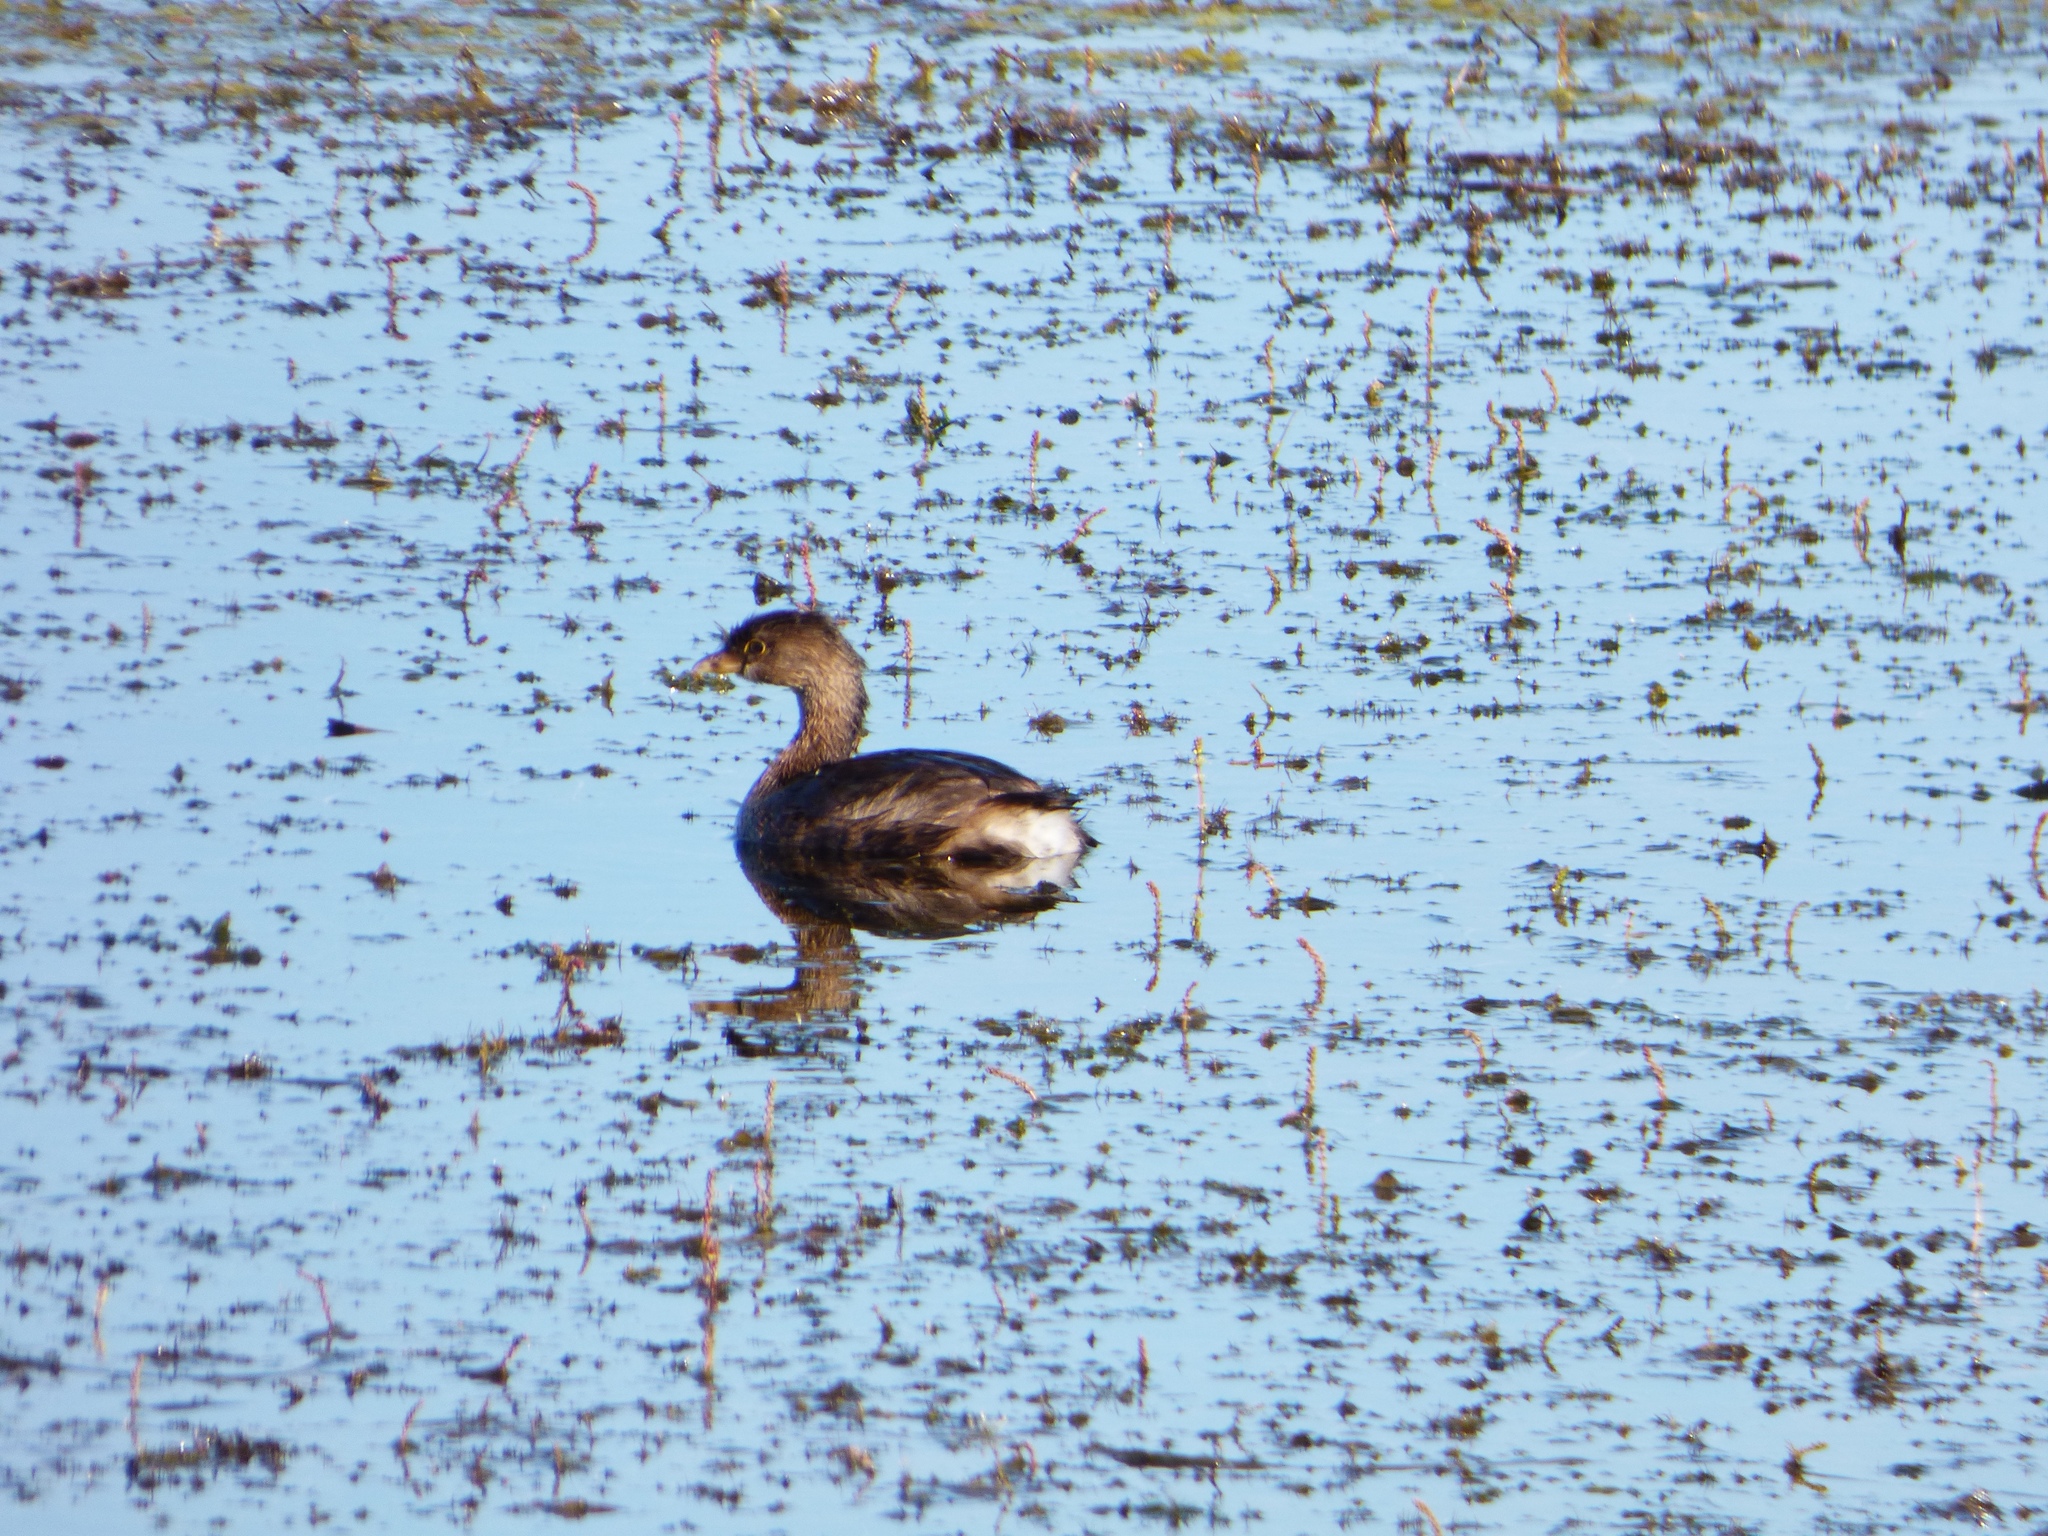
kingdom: Animalia
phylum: Chordata
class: Aves
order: Podicipediformes
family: Podicipedidae
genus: Podilymbus
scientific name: Podilymbus podiceps
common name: Pied-billed grebe
